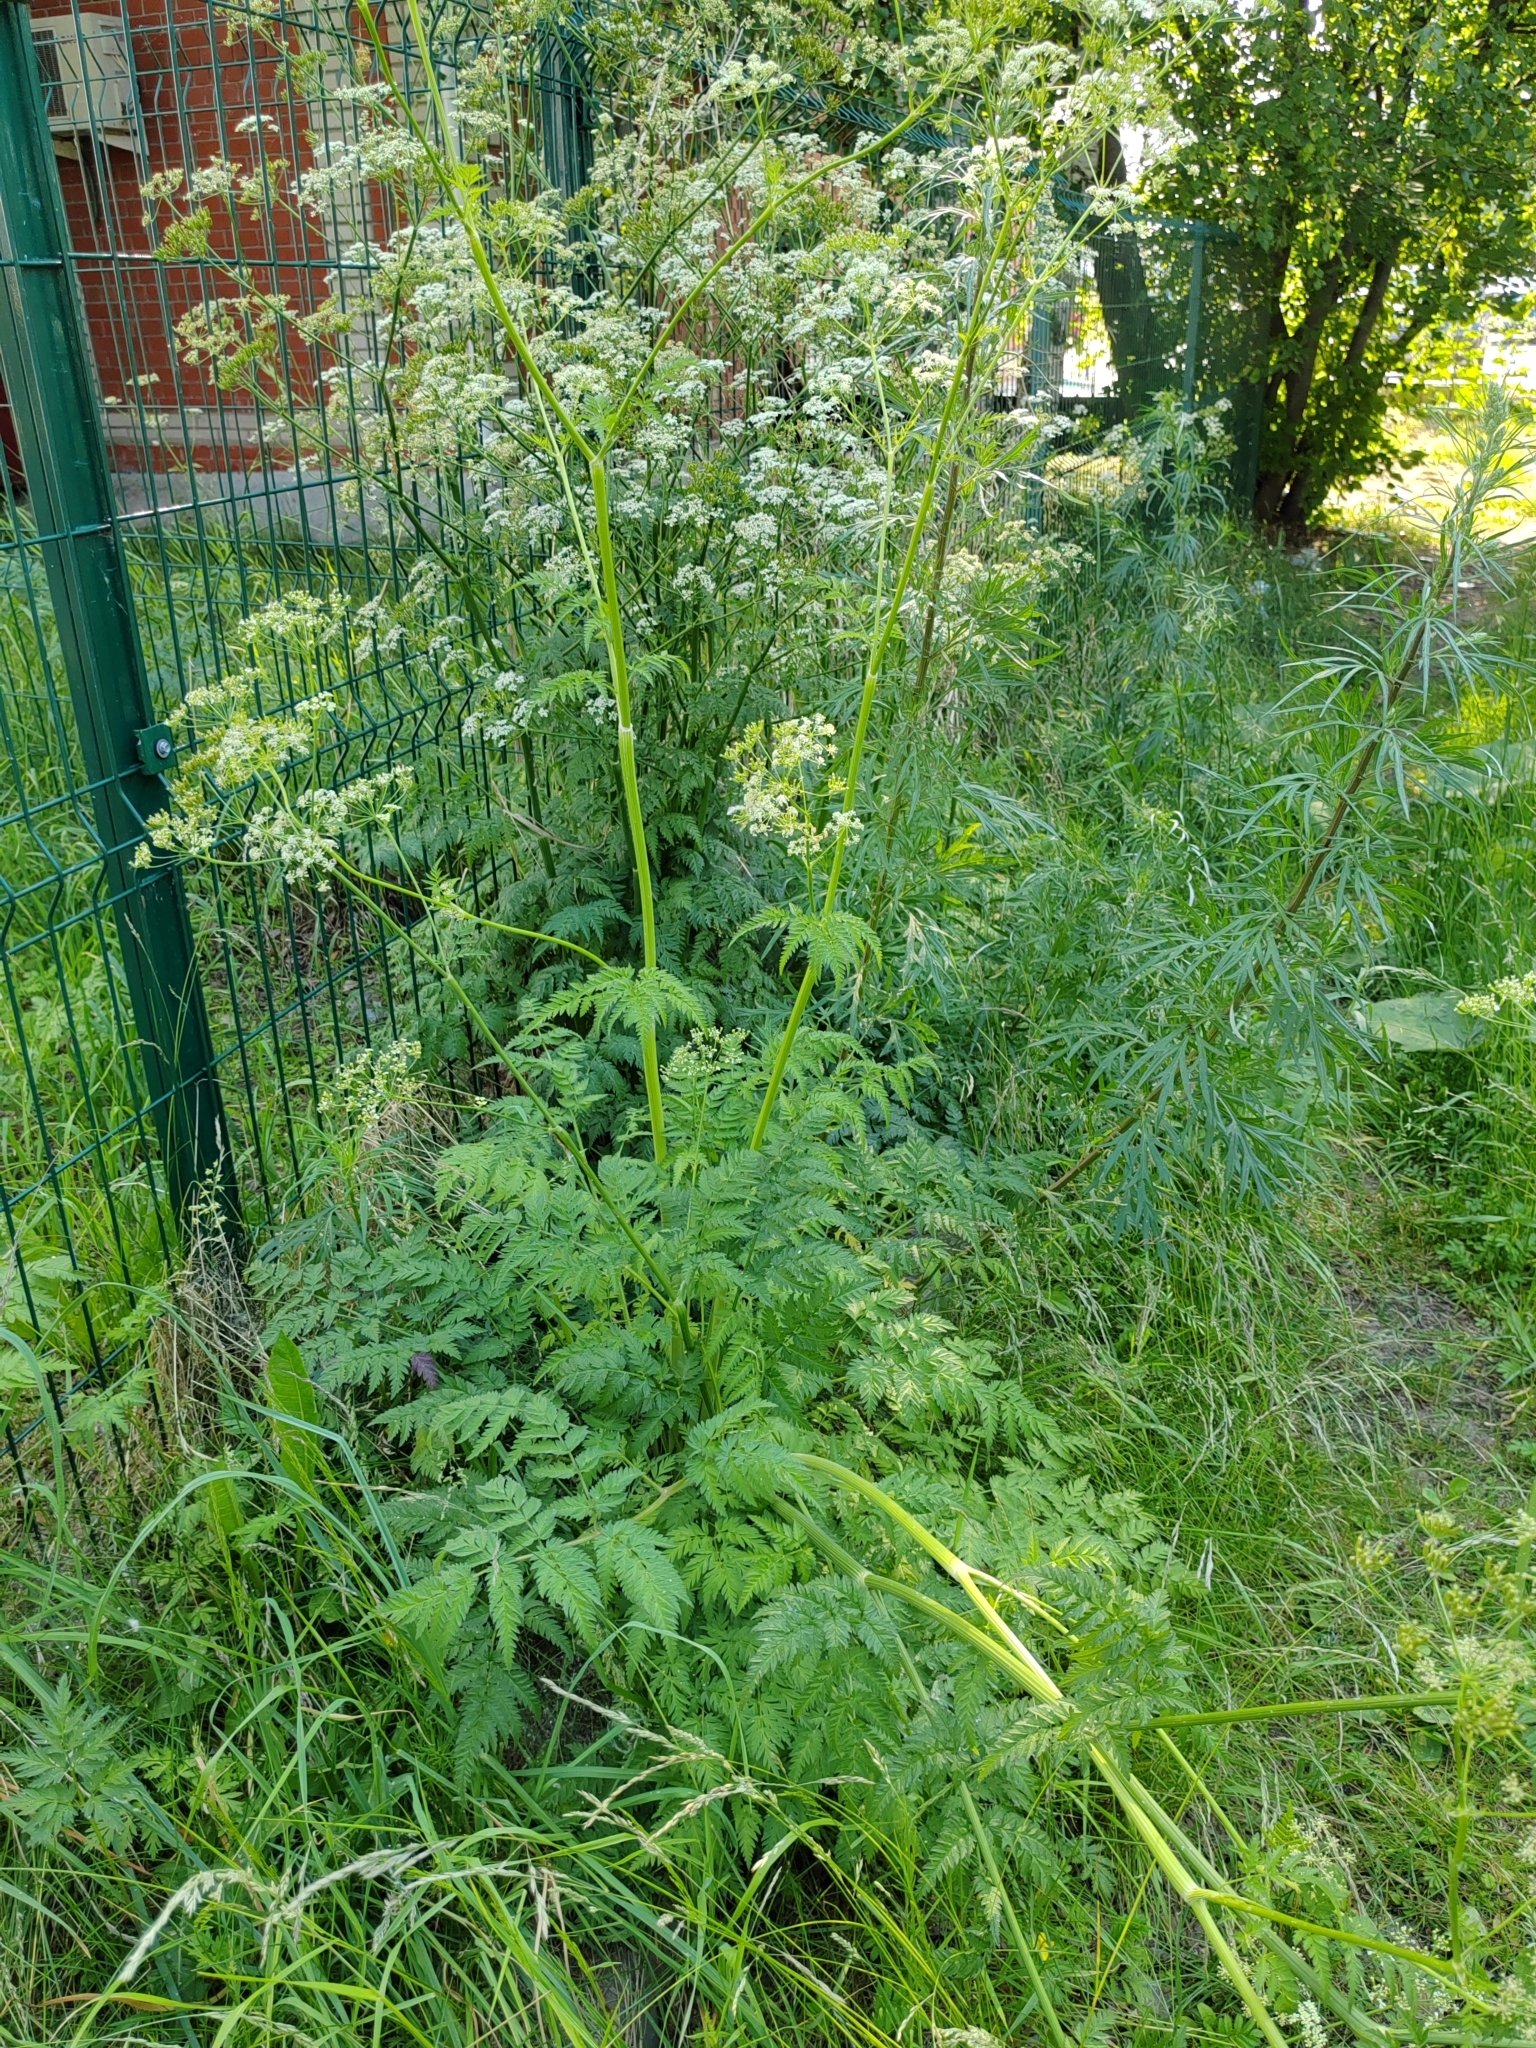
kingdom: Plantae
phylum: Tracheophyta
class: Magnoliopsida
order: Apiales
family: Apiaceae
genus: Anthriscus
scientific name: Anthriscus sylvestris
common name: Cow parsley
